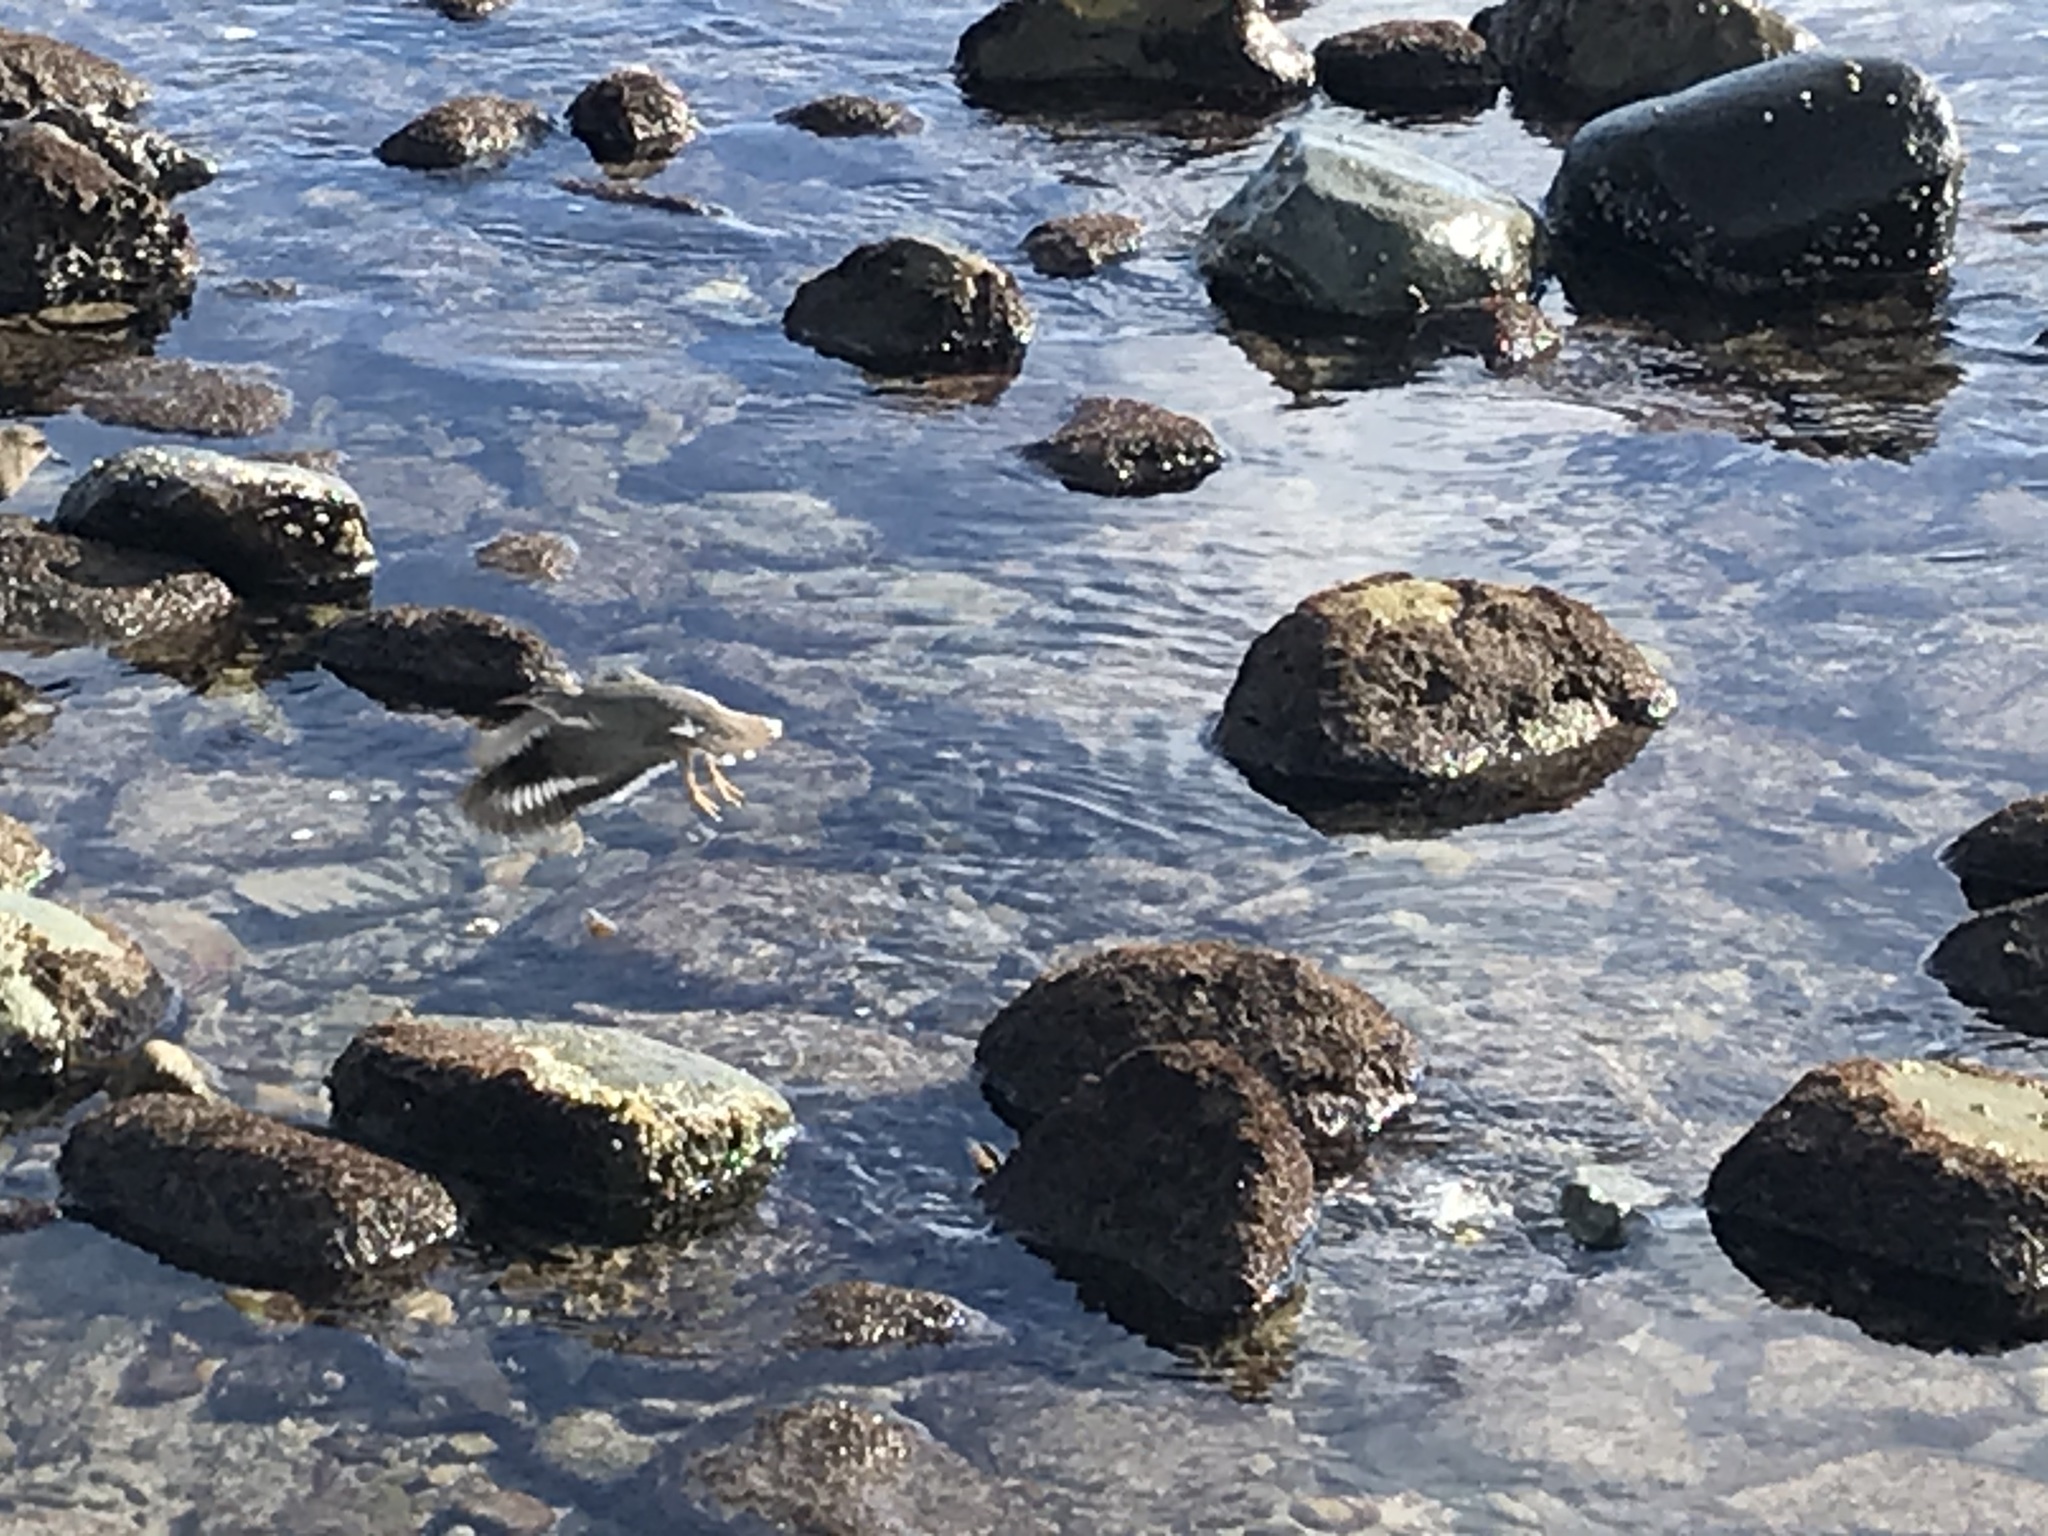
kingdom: Animalia
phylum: Chordata
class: Aves
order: Charadriiformes
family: Scolopacidae
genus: Actitis
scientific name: Actitis macularius
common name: Spotted sandpiper
